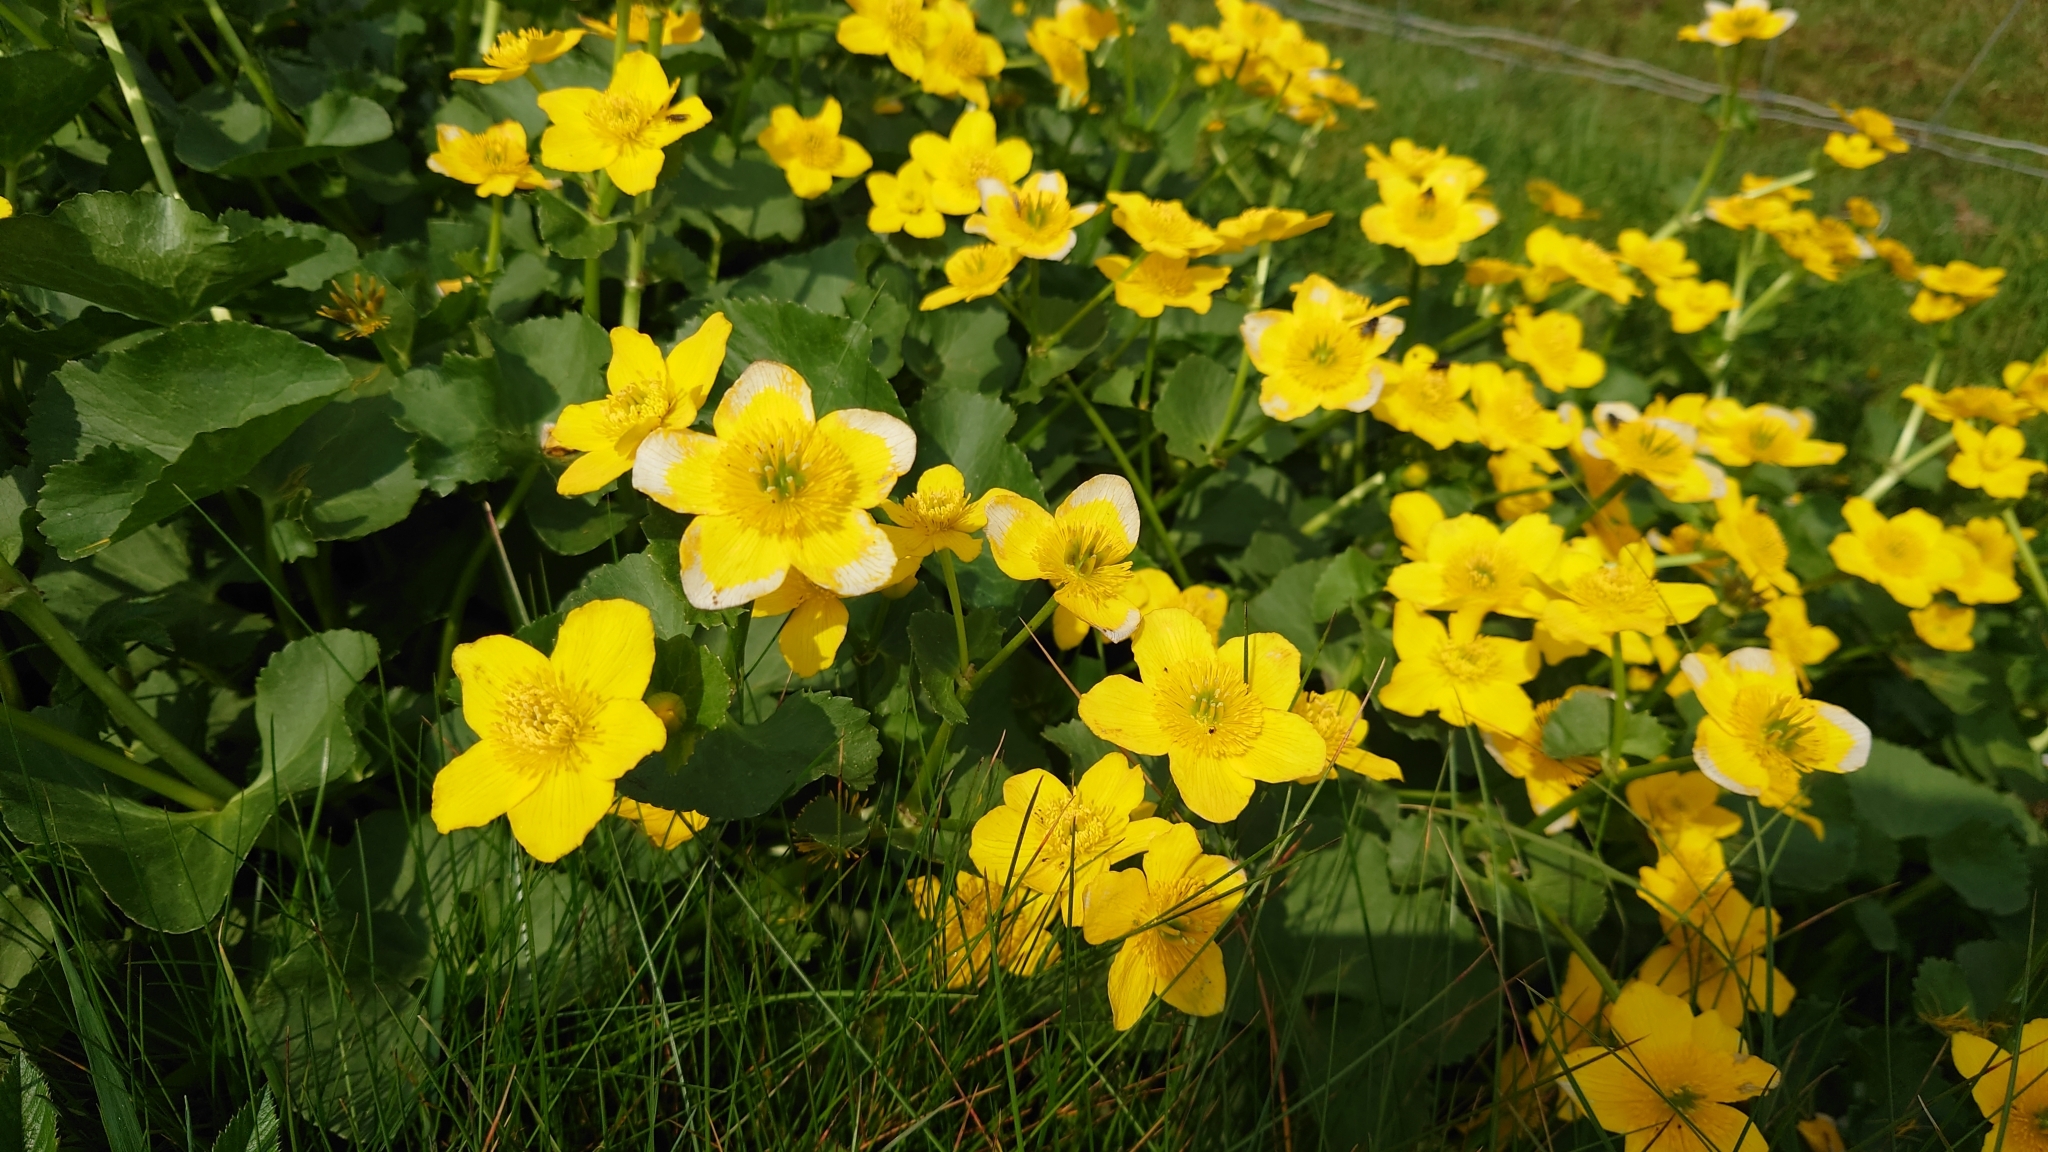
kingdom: Plantae
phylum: Tracheophyta
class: Magnoliopsida
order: Ranunculales
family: Ranunculaceae
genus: Caltha
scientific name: Caltha palustris
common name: Marsh marigold
